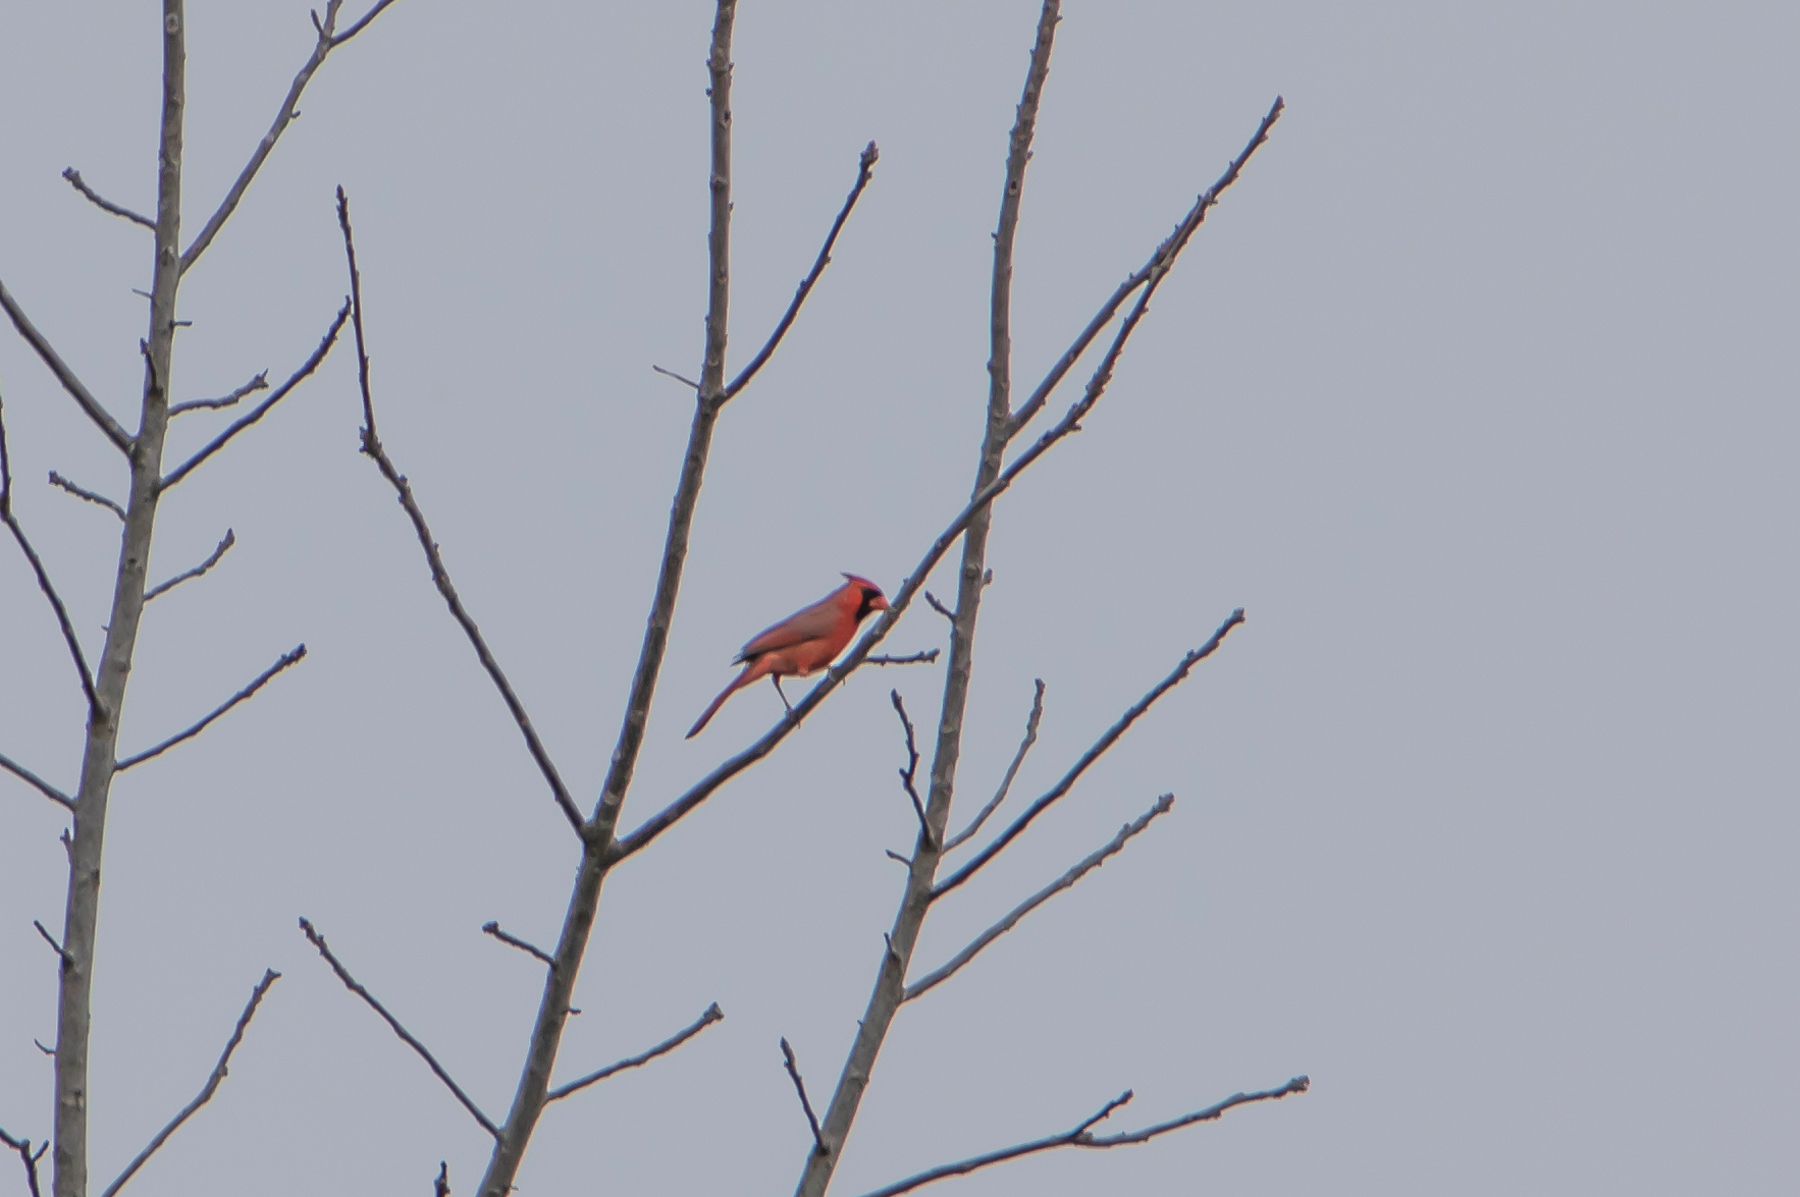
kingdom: Animalia
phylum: Chordata
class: Aves
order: Passeriformes
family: Cardinalidae
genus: Cardinalis
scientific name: Cardinalis cardinalis
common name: Northern cardinal
